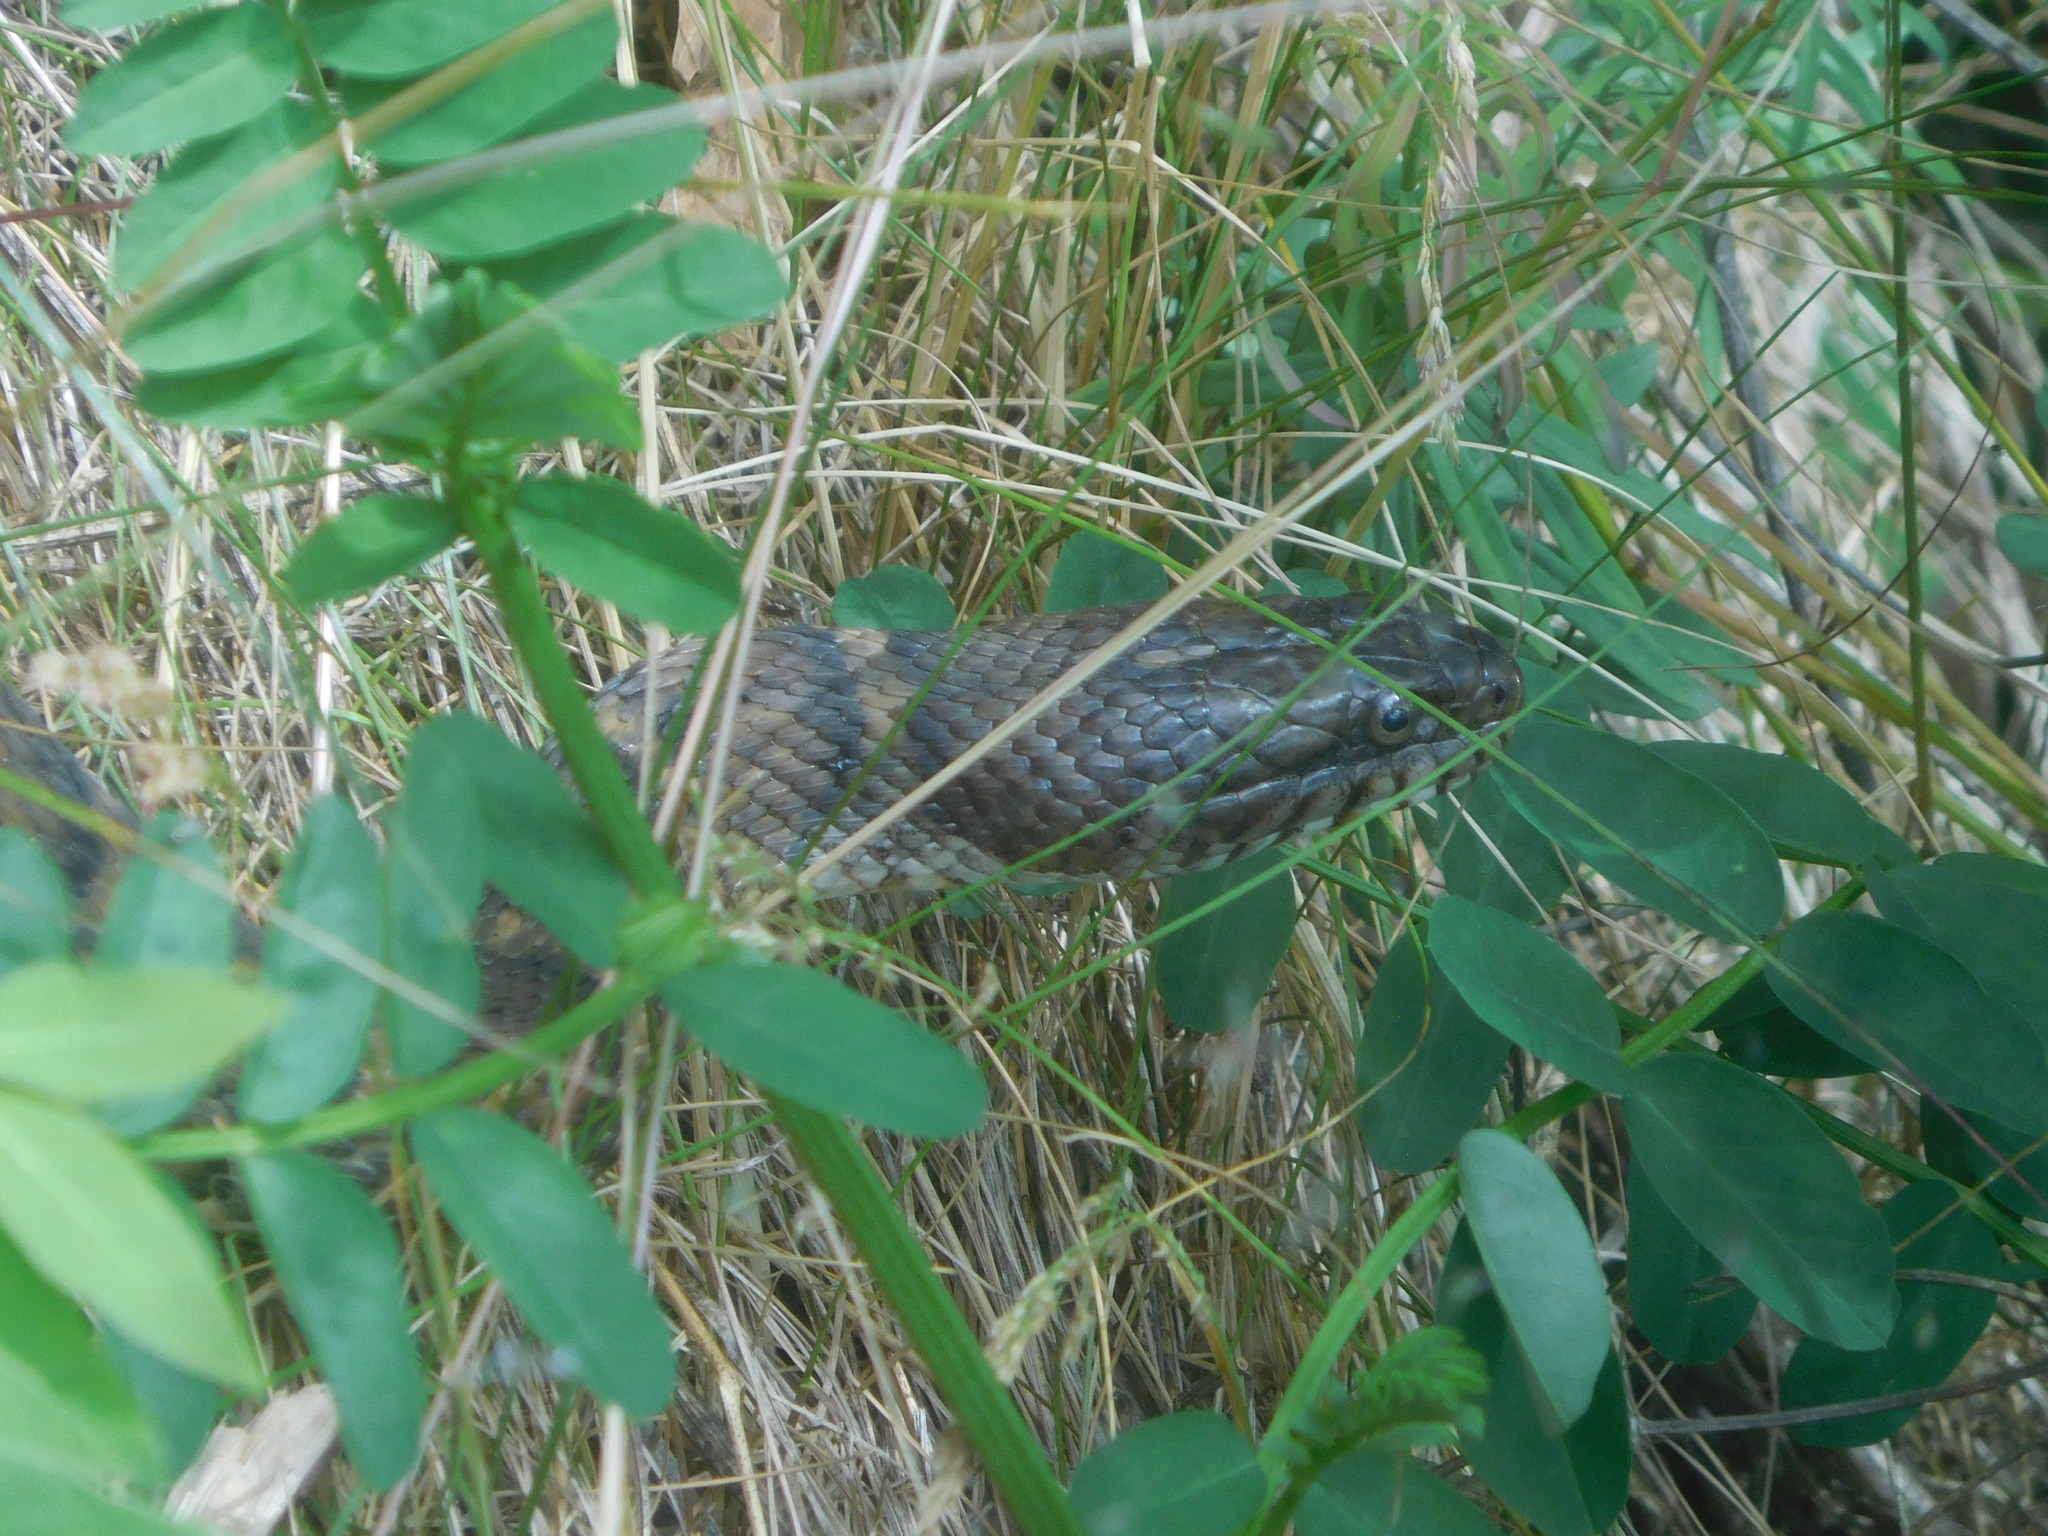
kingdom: Animalia
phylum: Chordata
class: Squamata
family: Colubridae
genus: Nerodia
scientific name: Nerodia sipedon
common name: Northern water snake
